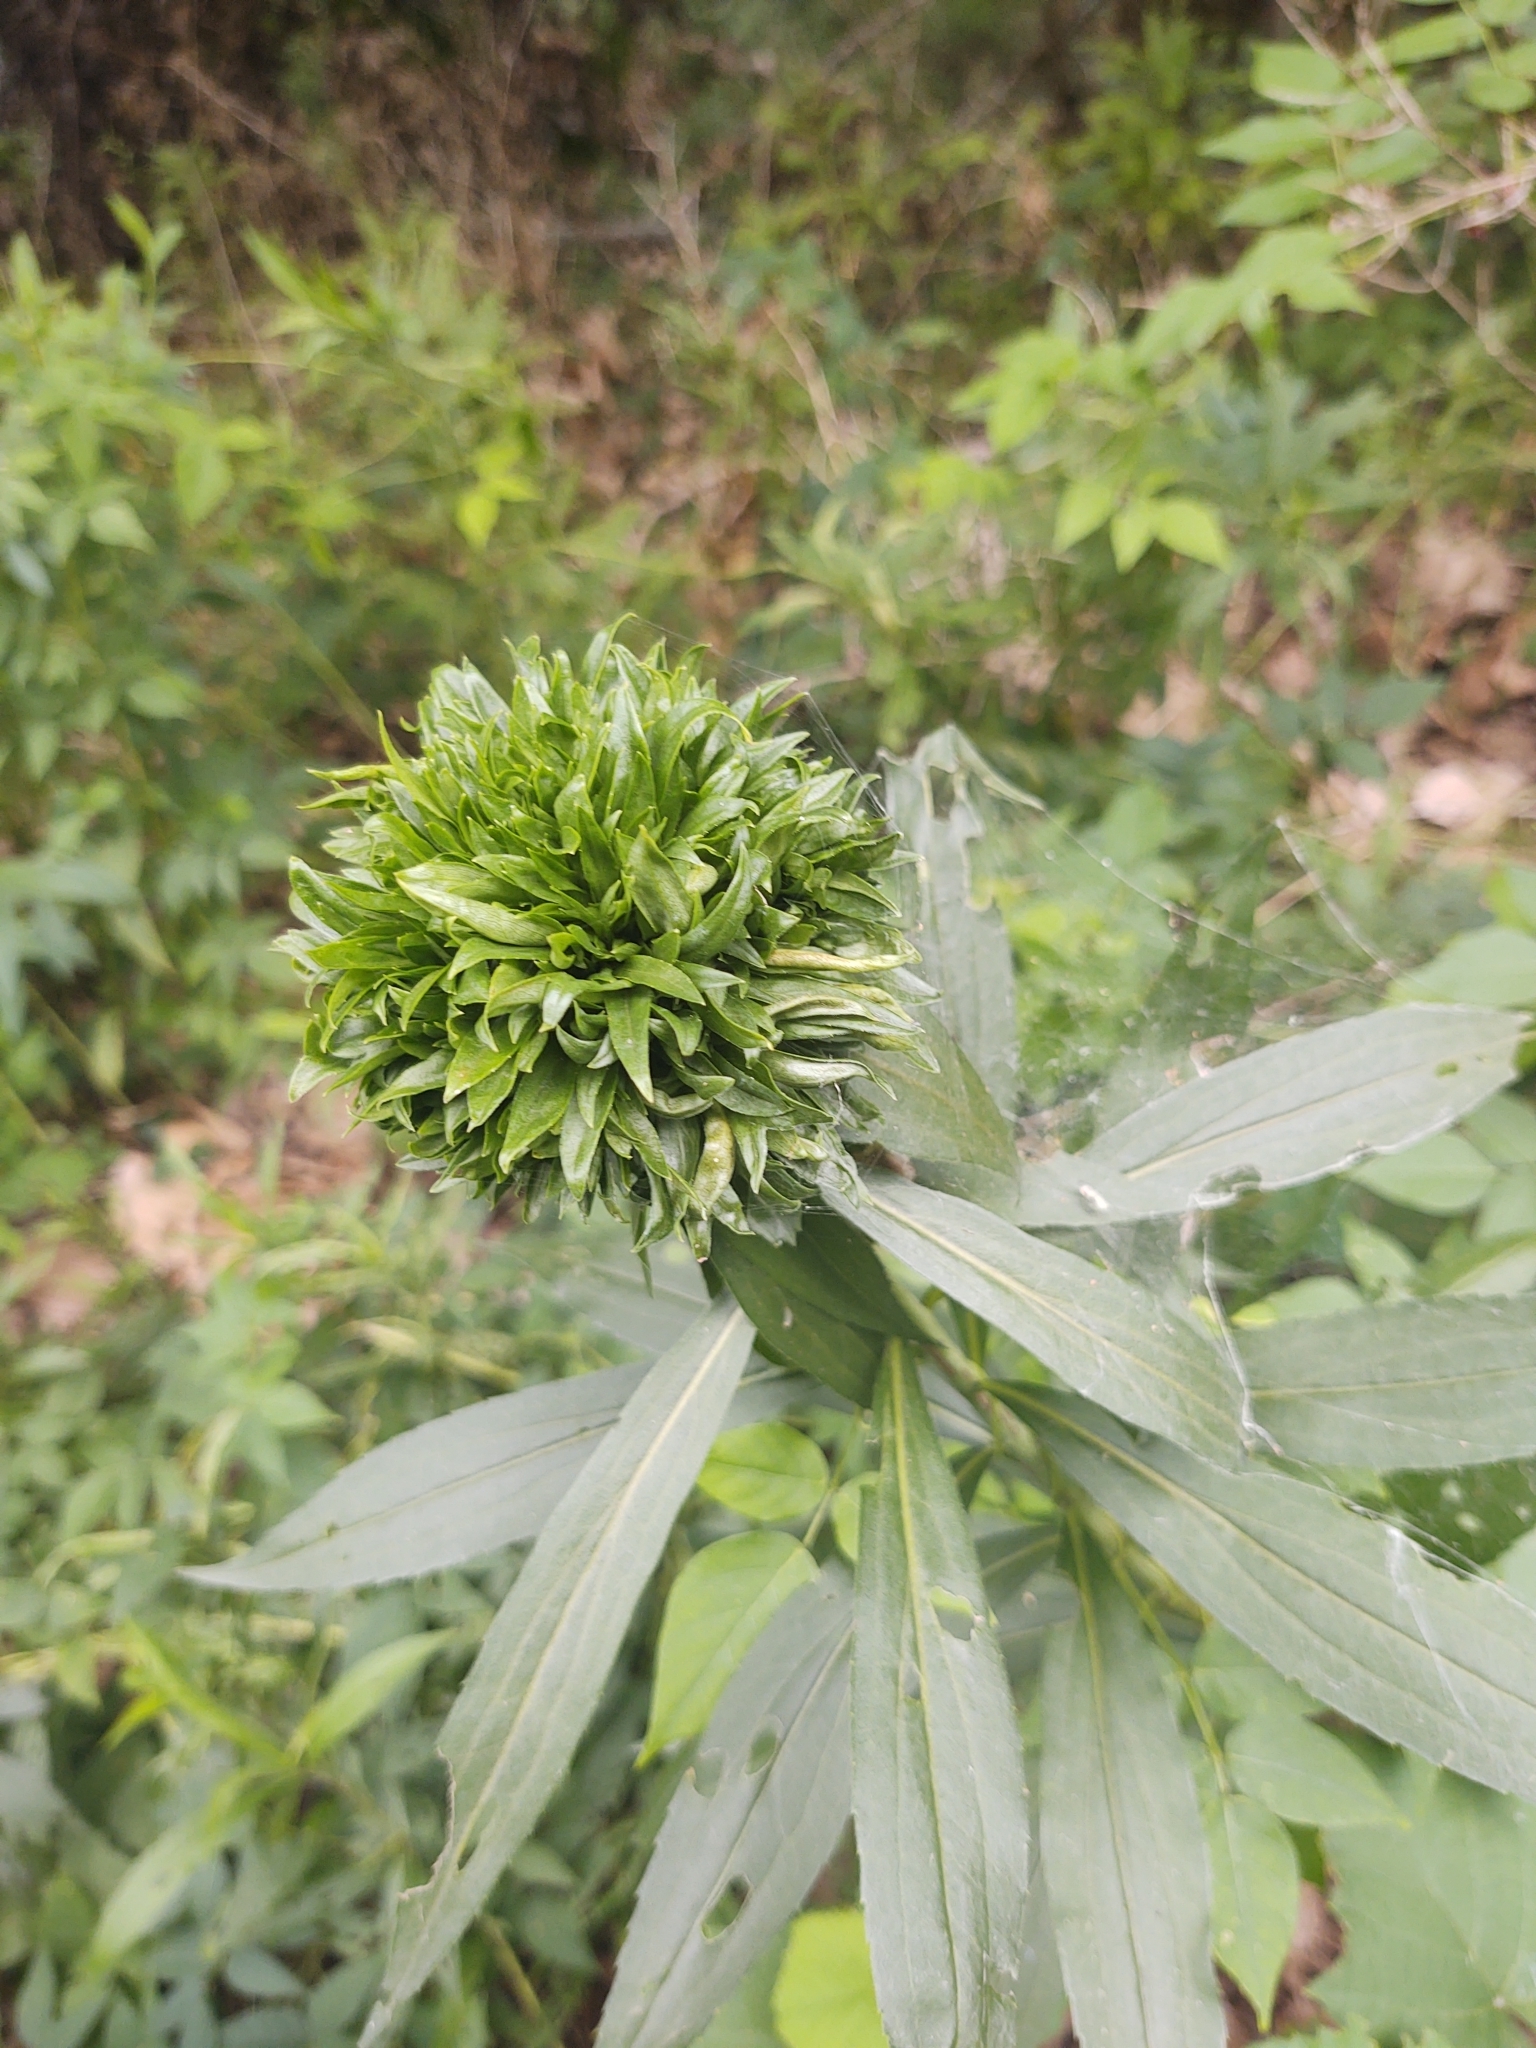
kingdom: Animalia
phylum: Arthropoda
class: Insecta
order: Diptera
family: Cecidomyiidae
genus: Rhopalomyia
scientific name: Rhopalomyia solidaginis
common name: Goldenrod bunch gall midge
